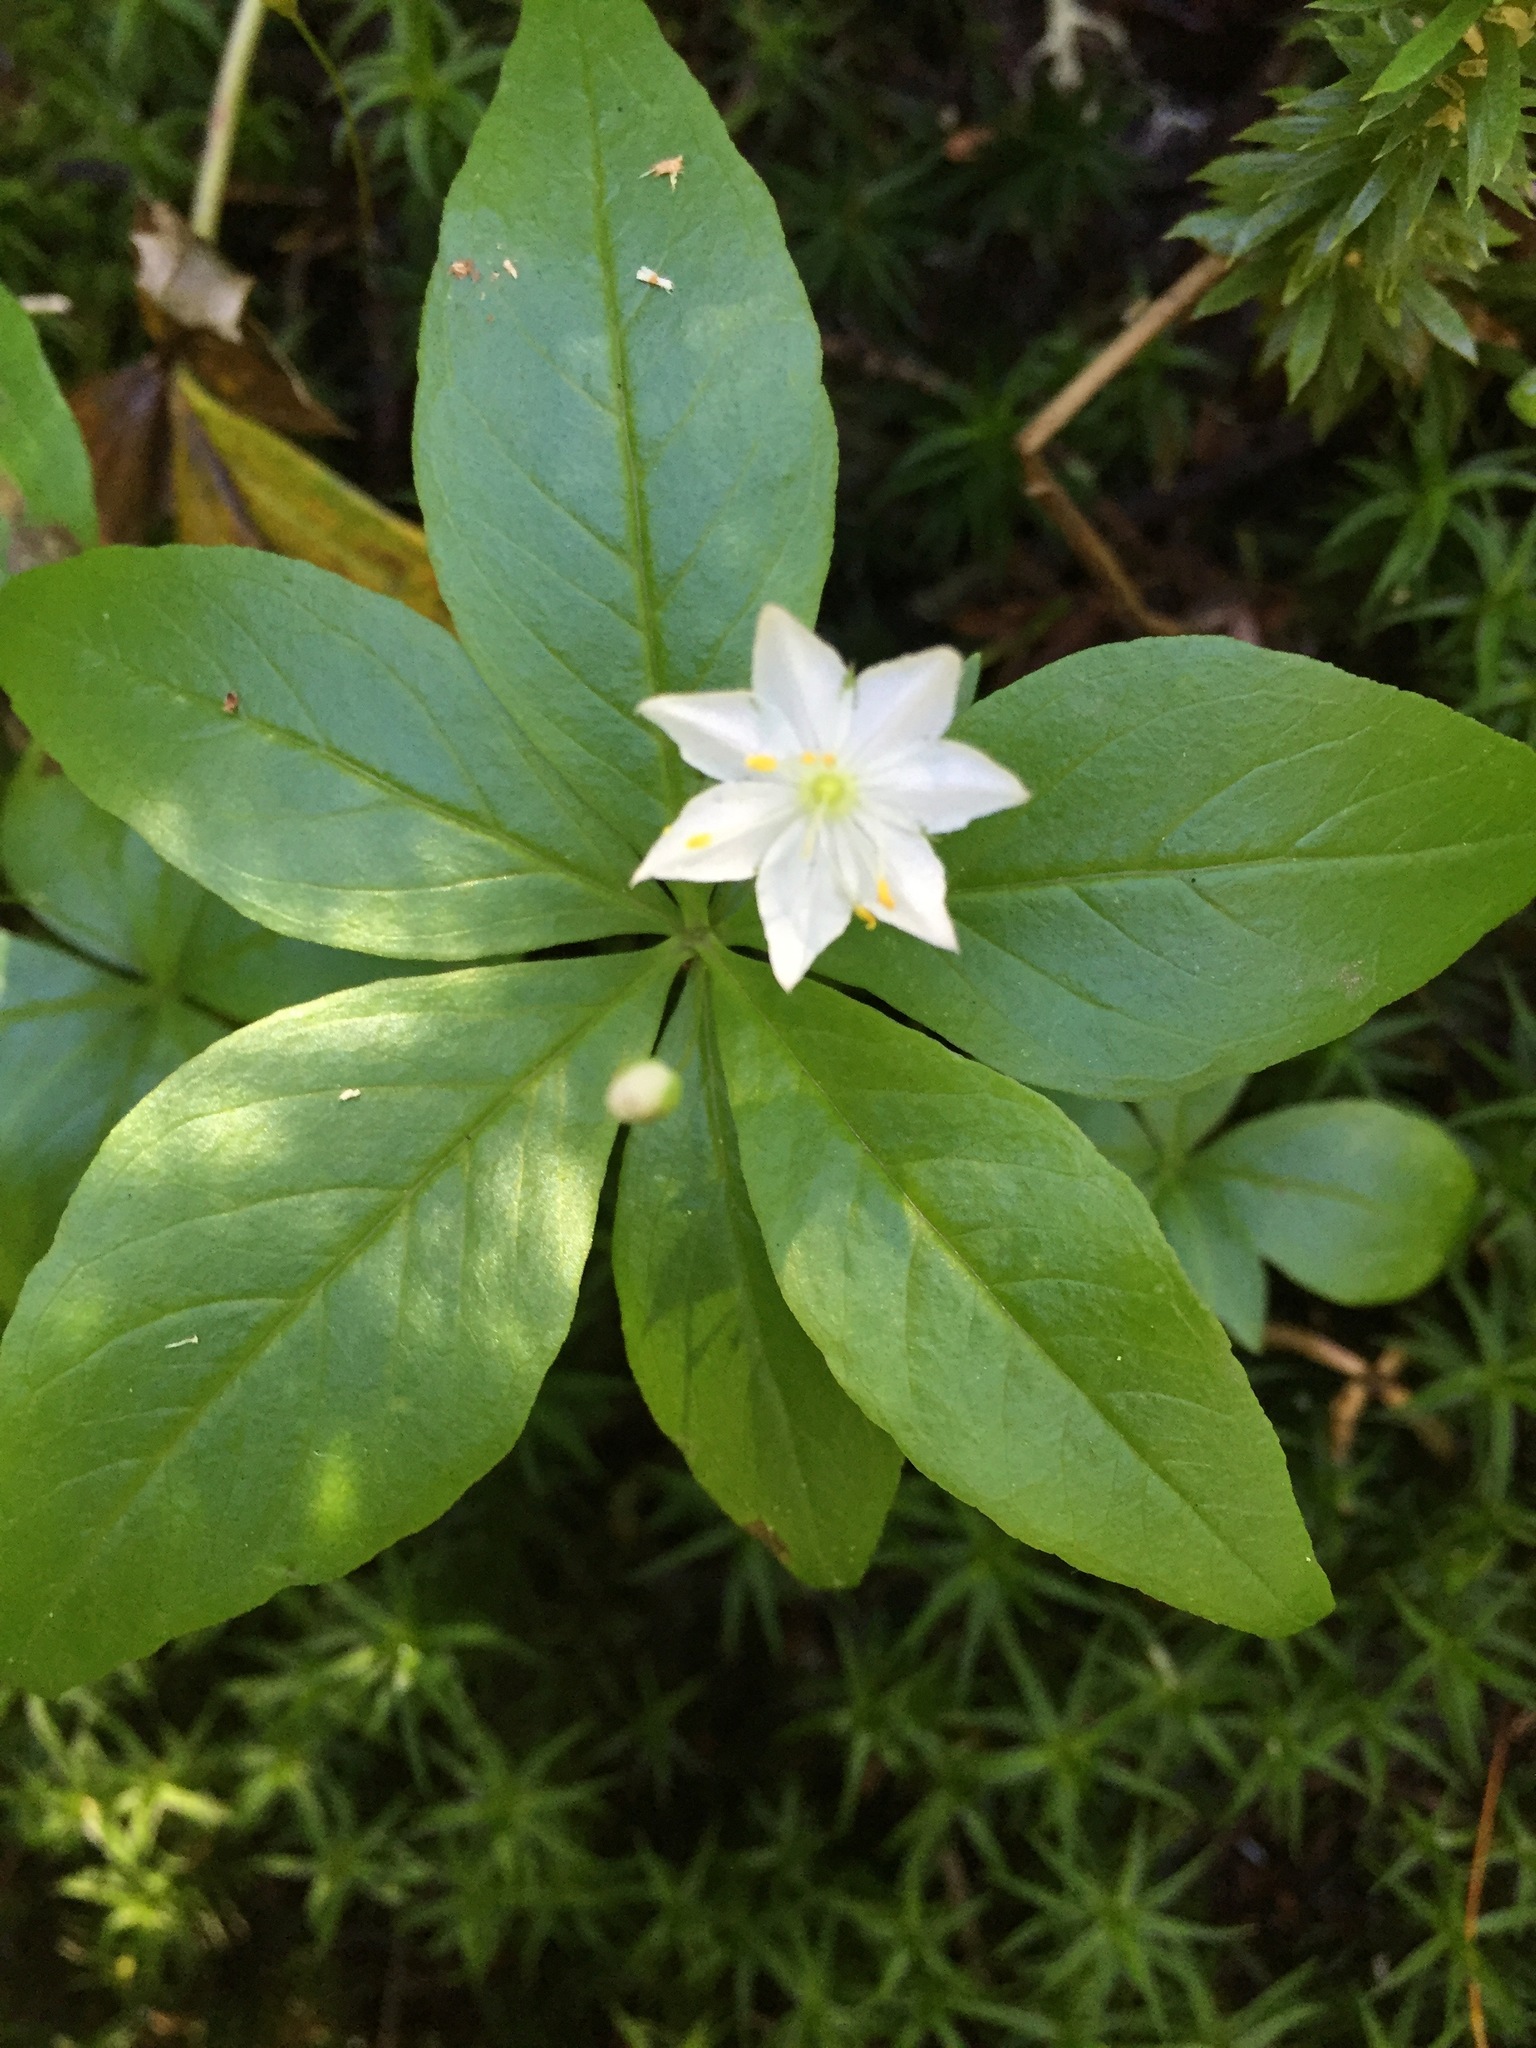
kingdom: Plantae
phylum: Tracheophyta
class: Magnoliopsida
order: Ericales
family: Primulaceae
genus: Lysimachia
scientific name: Lysimachia borealis
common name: American starflower
